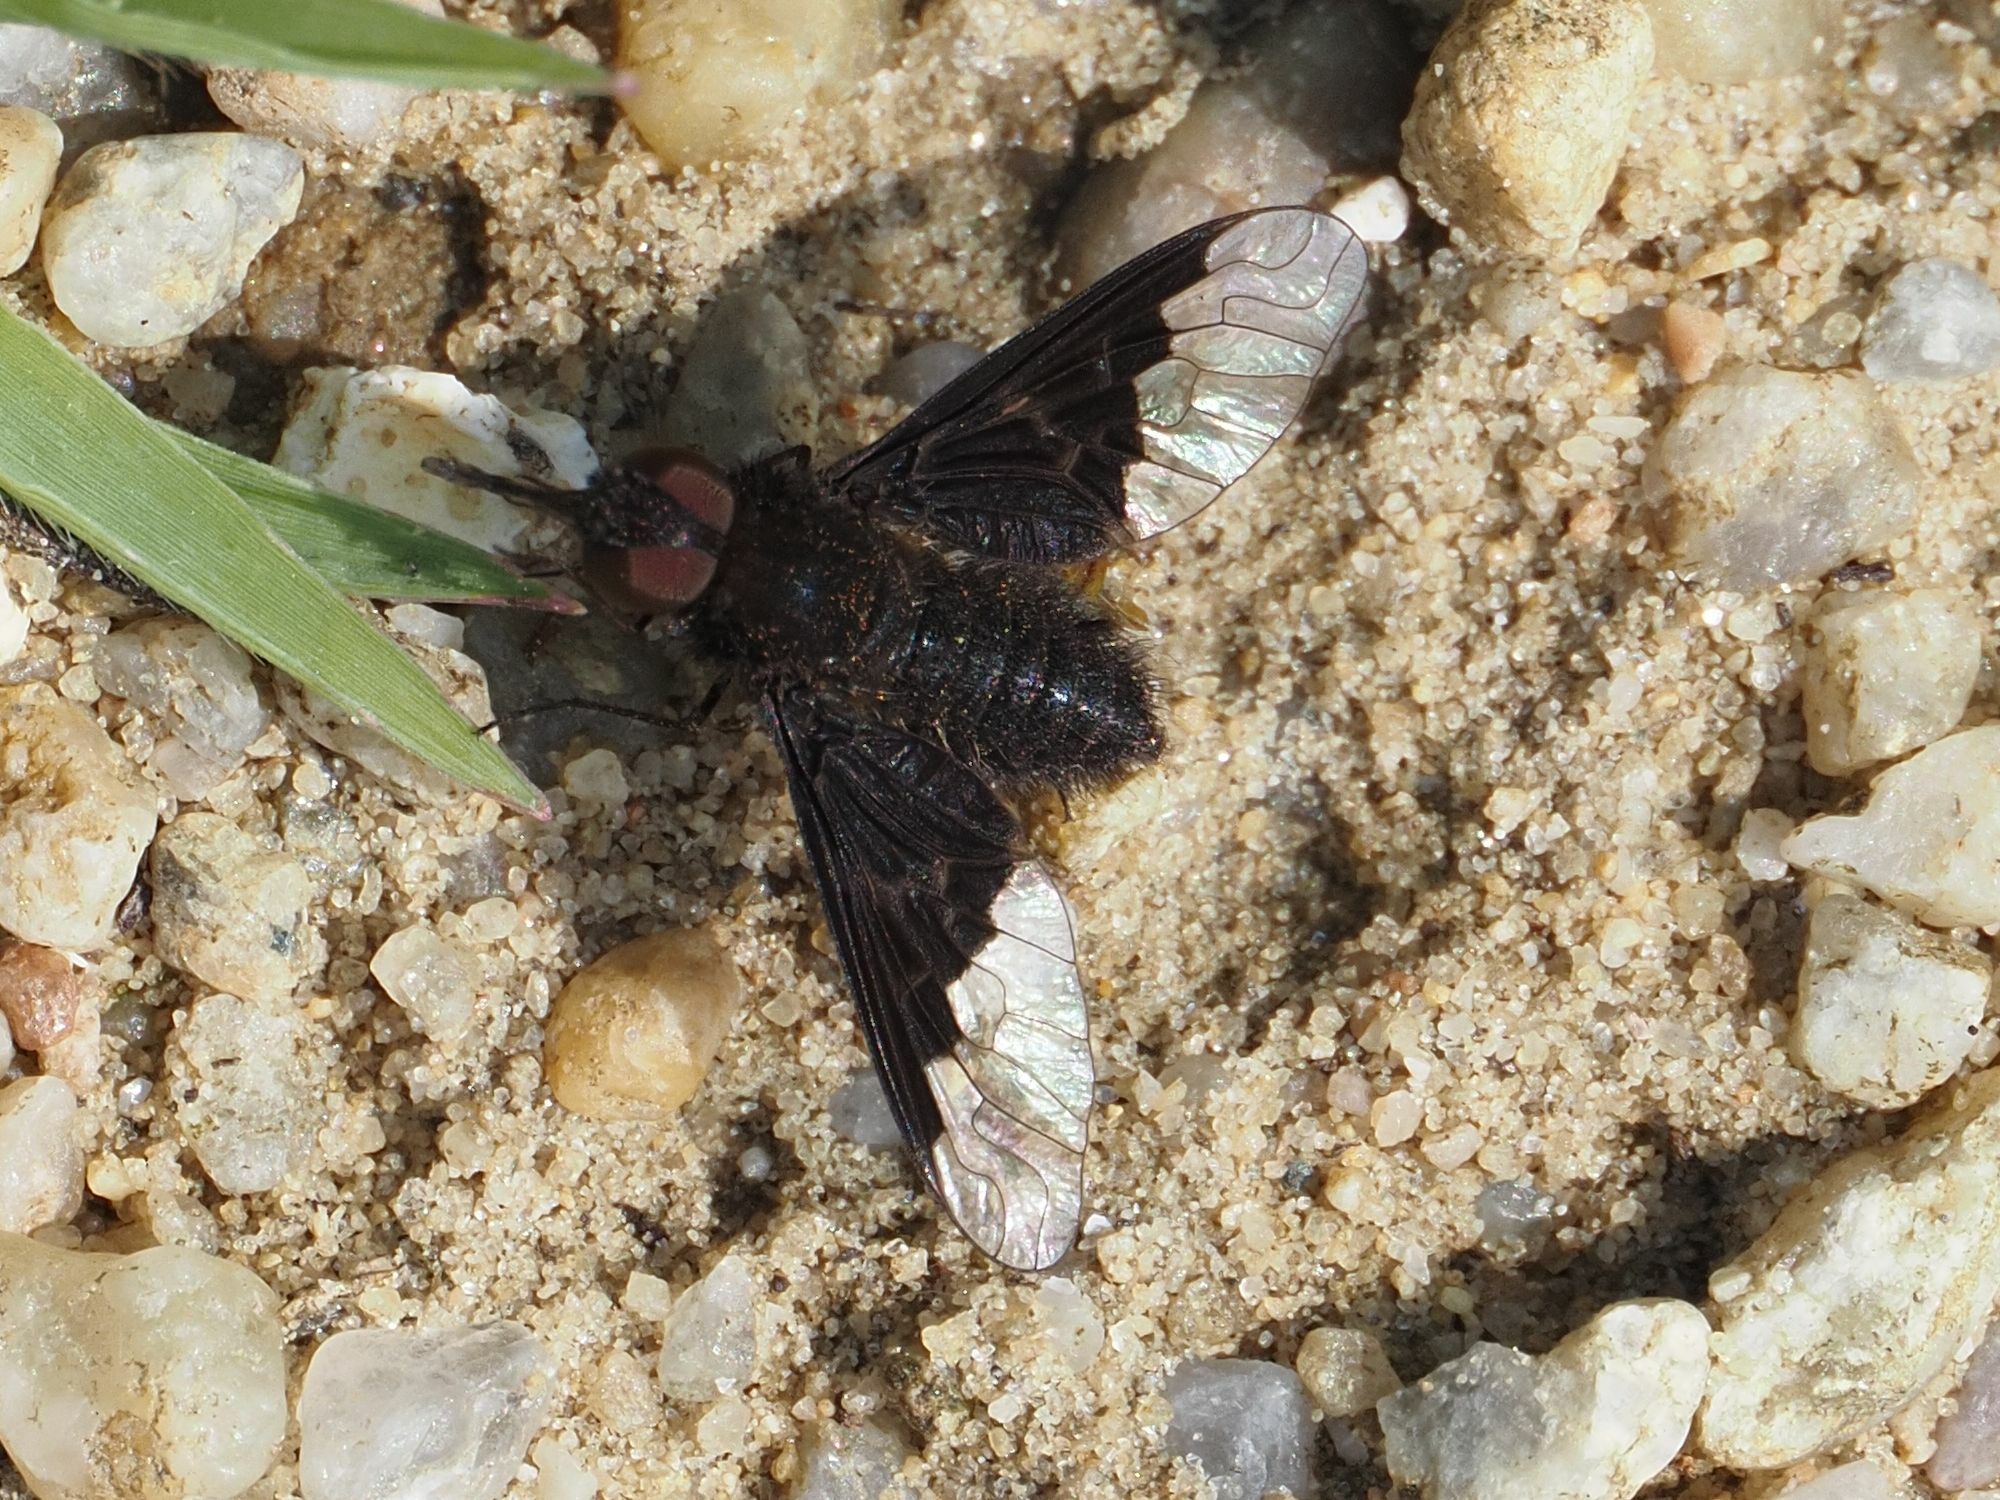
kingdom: Animalia
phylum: Arthropoda
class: Insecta
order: Diptera
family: Bombyliidae
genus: Hemipenthes
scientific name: Hemipenthes morio
